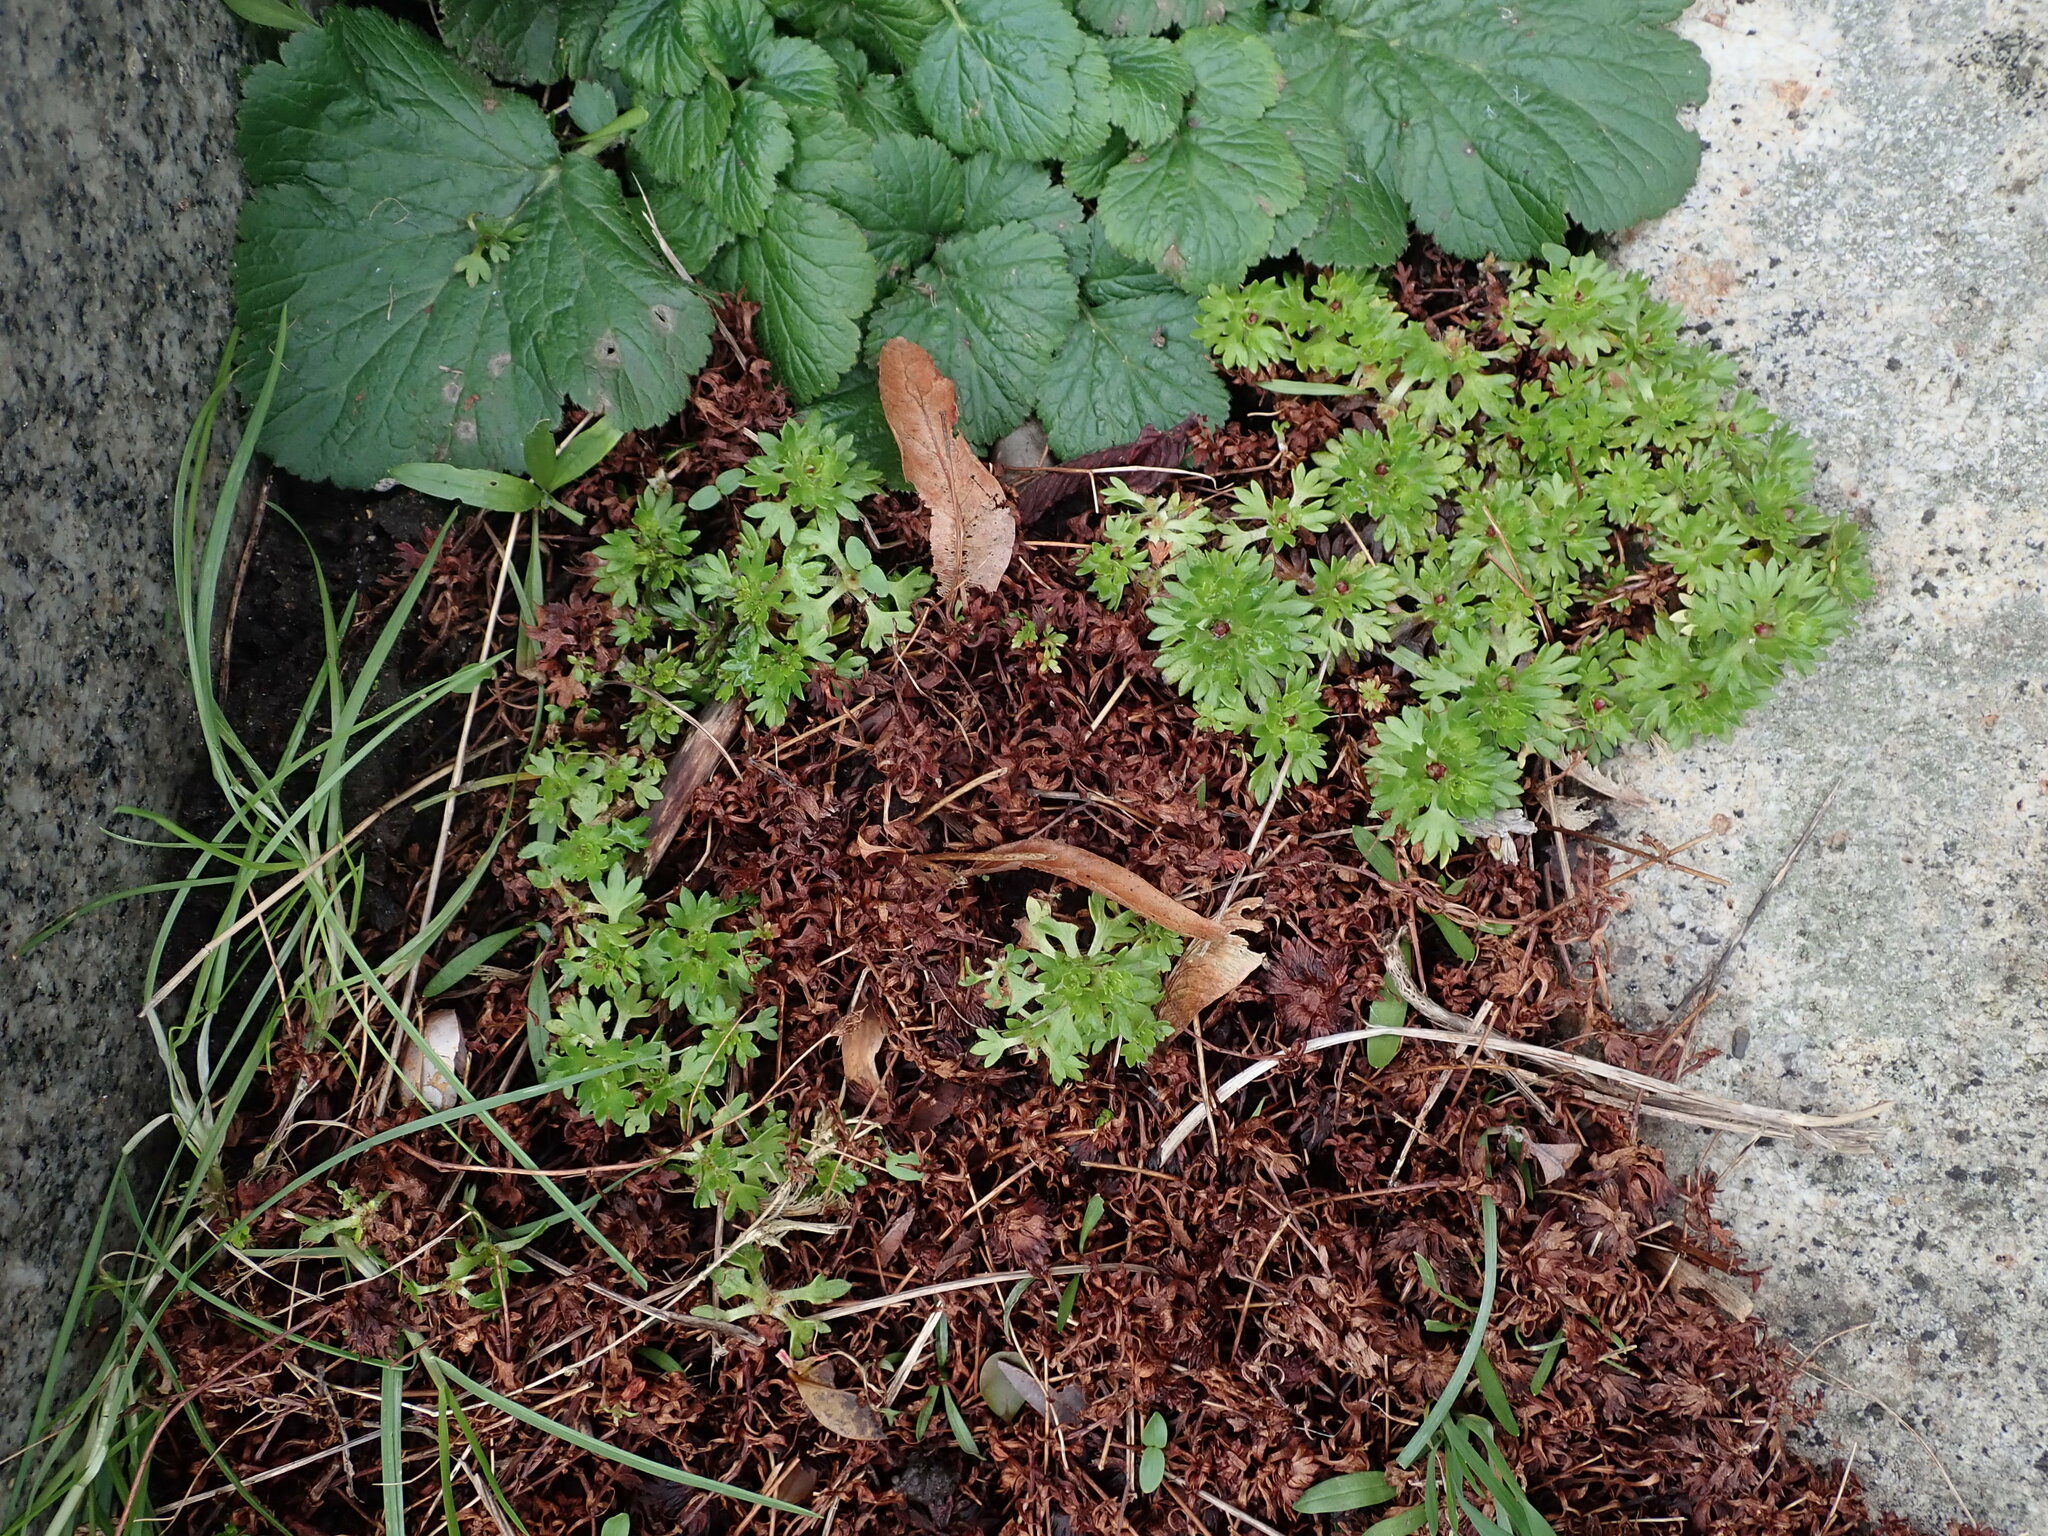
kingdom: Plantae
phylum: Tracheophyta
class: Magnoliopsida
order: Saxifragales
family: Saxifragaceae
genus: Saxifraga
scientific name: Saxifraga arendsii
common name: Garden mossy-saxifrage
